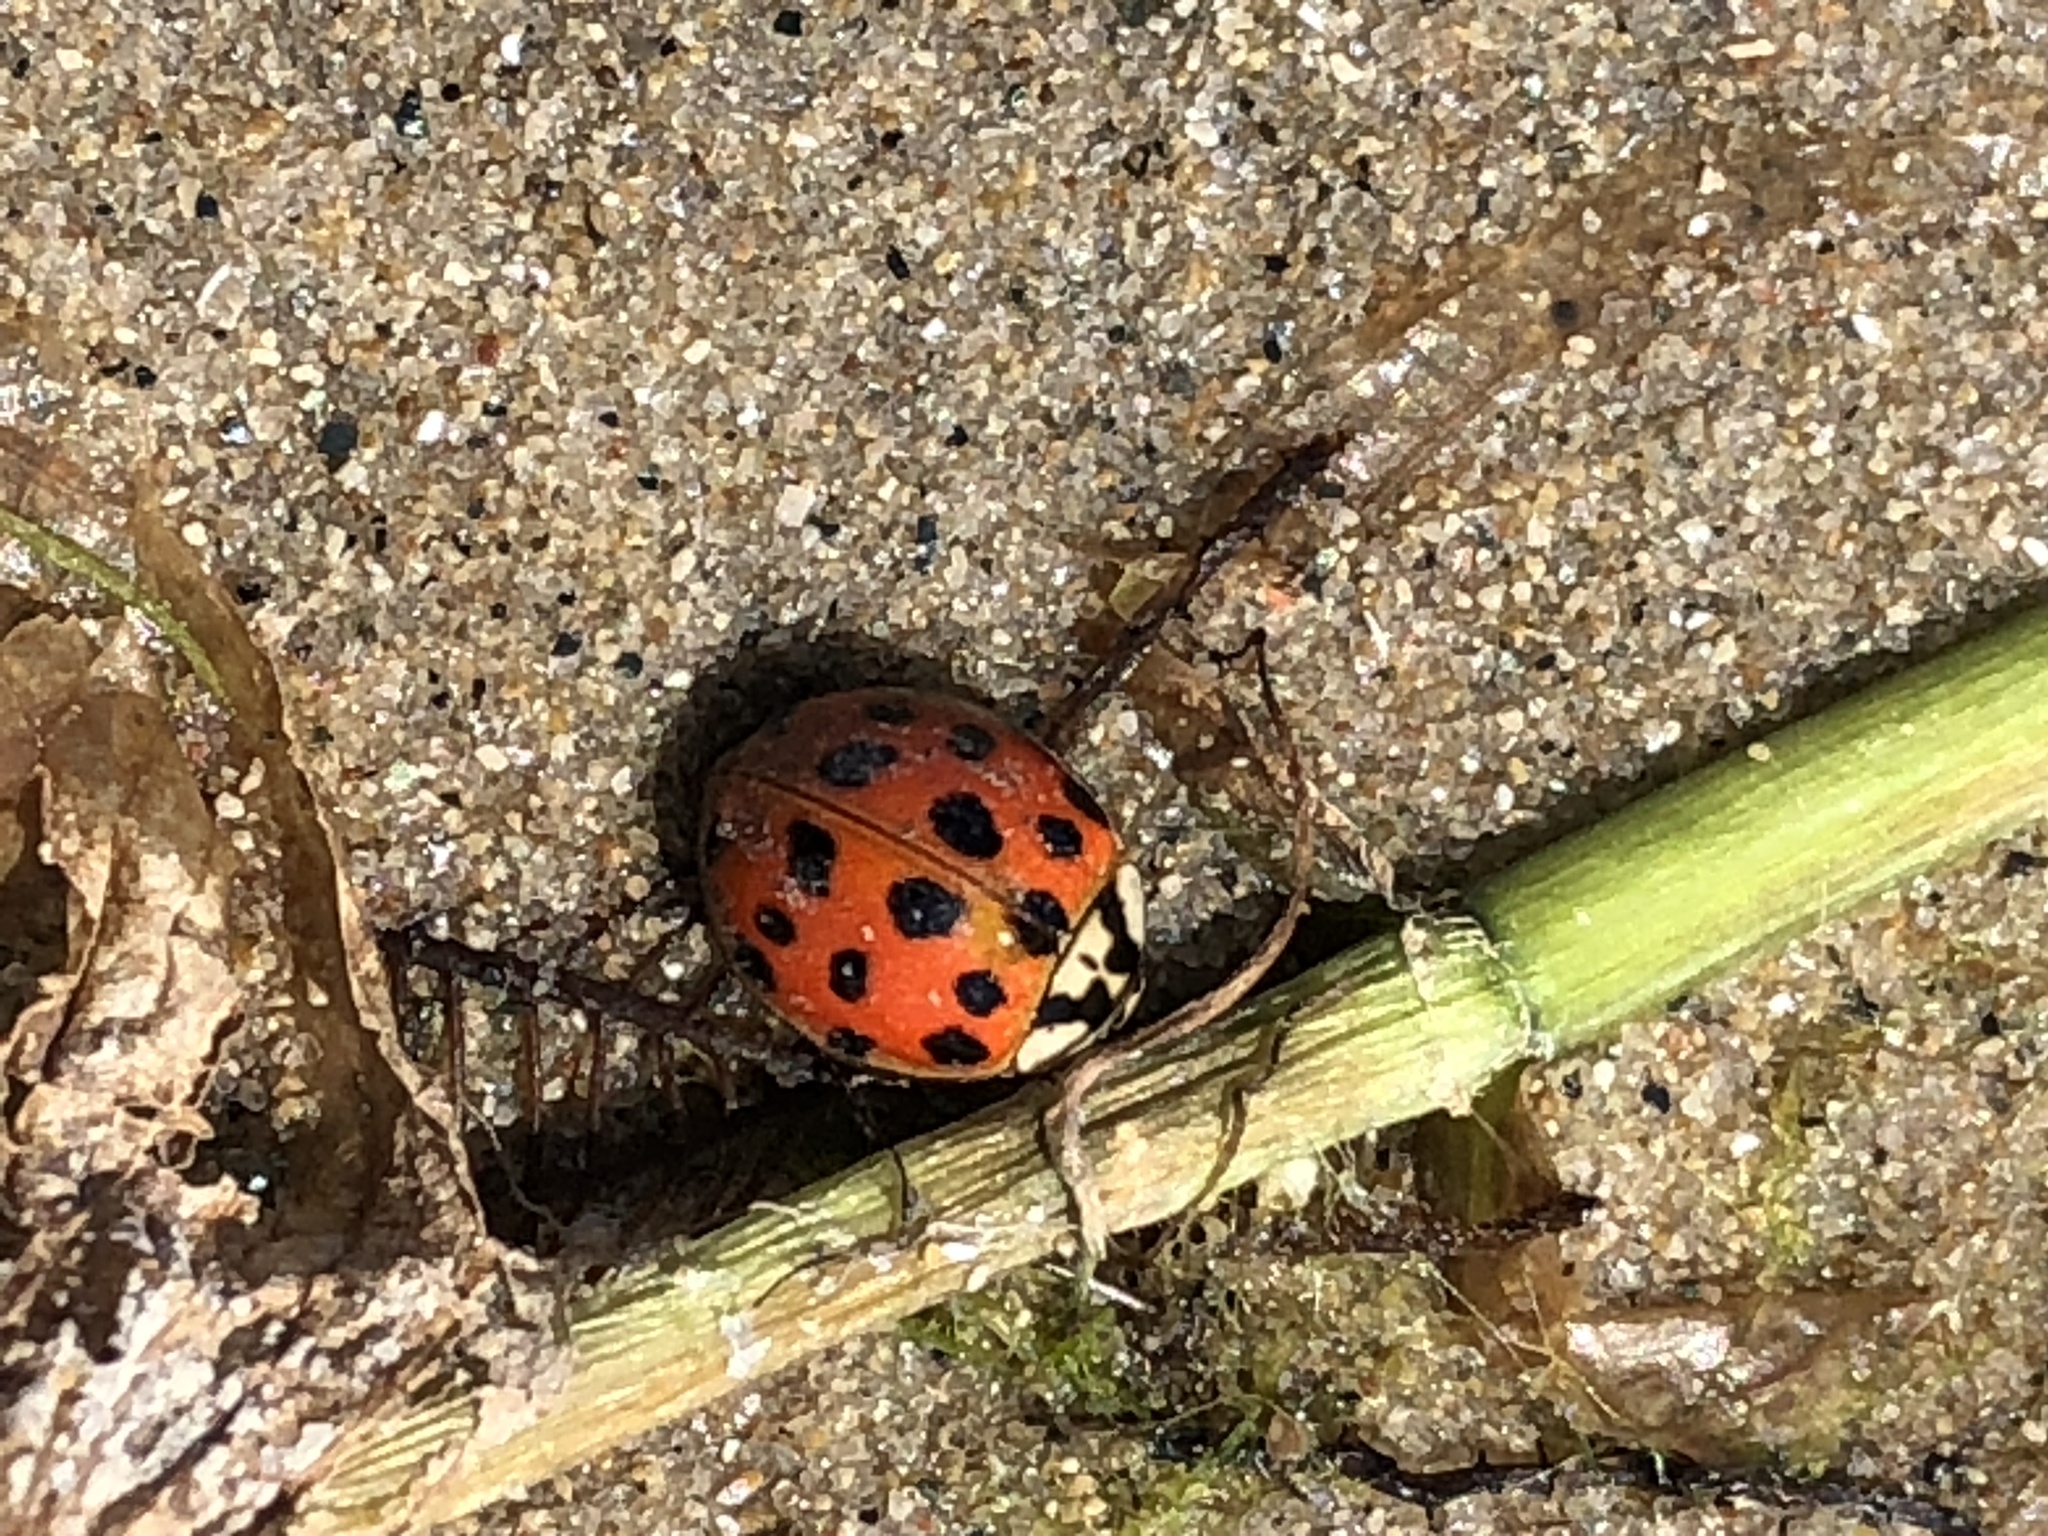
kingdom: Animalia
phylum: Arthropoda
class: Insecta
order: Coleoptera
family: Coccinellidae
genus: Harmonia
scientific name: Harmonia axyridis
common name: Harlequin ladybird
